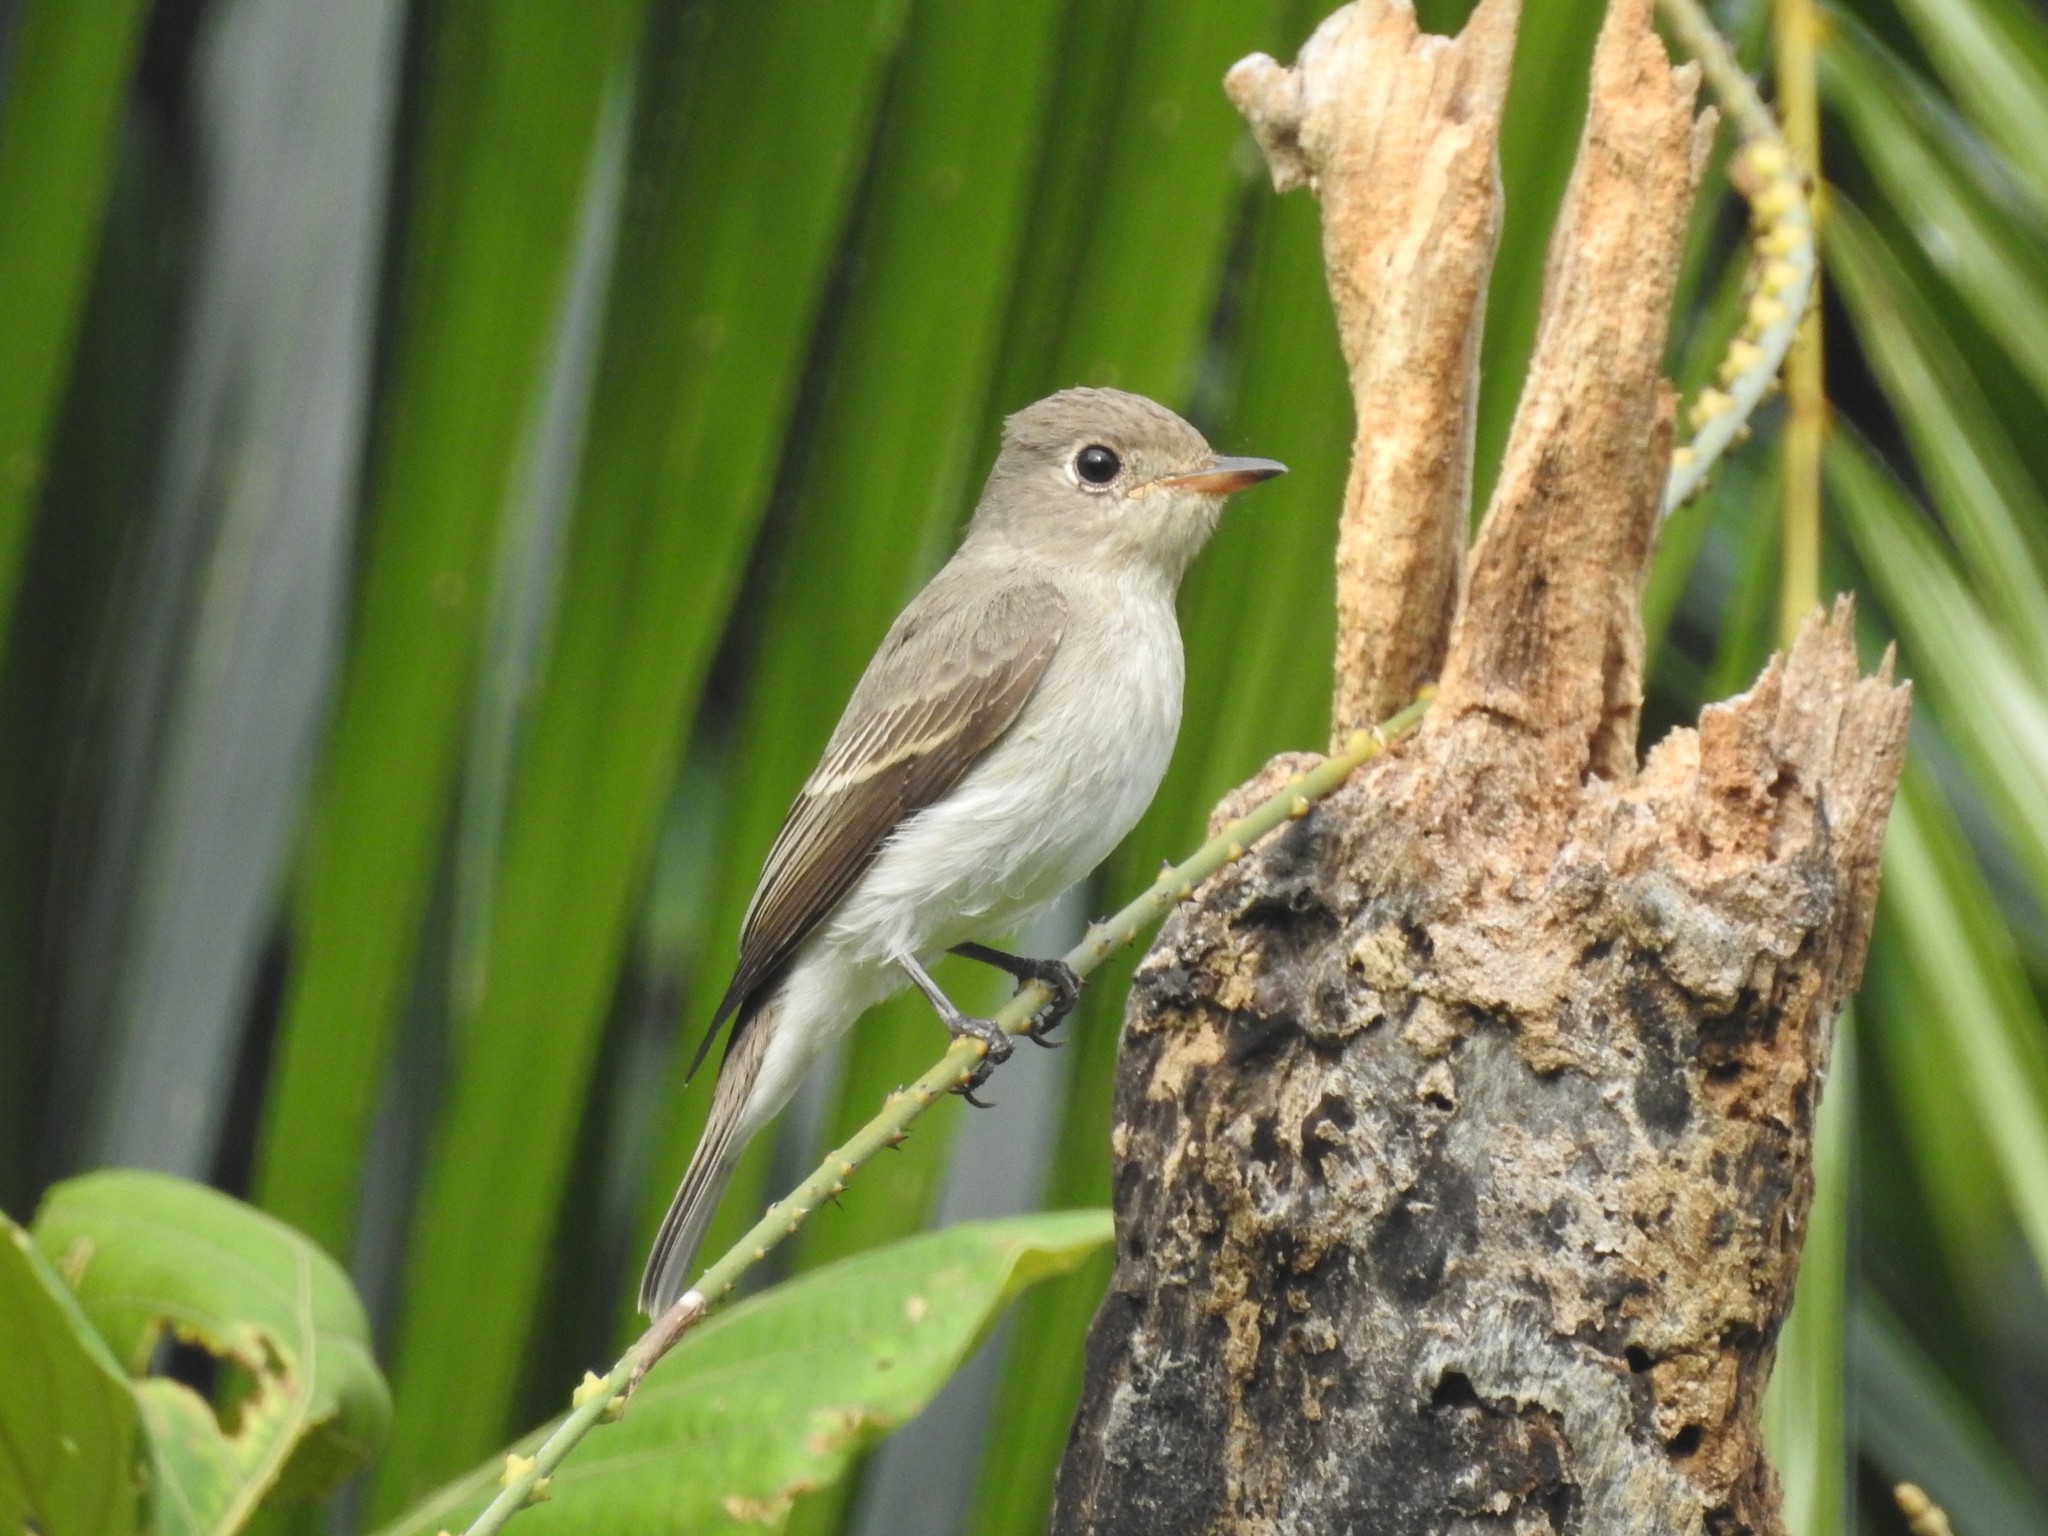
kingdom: Animalia
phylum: Chordata
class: Aves
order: Passeriformes
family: Muscicapidae
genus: Muscicapa
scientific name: Muscicapa latirostris
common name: Asian brown flycatcher
